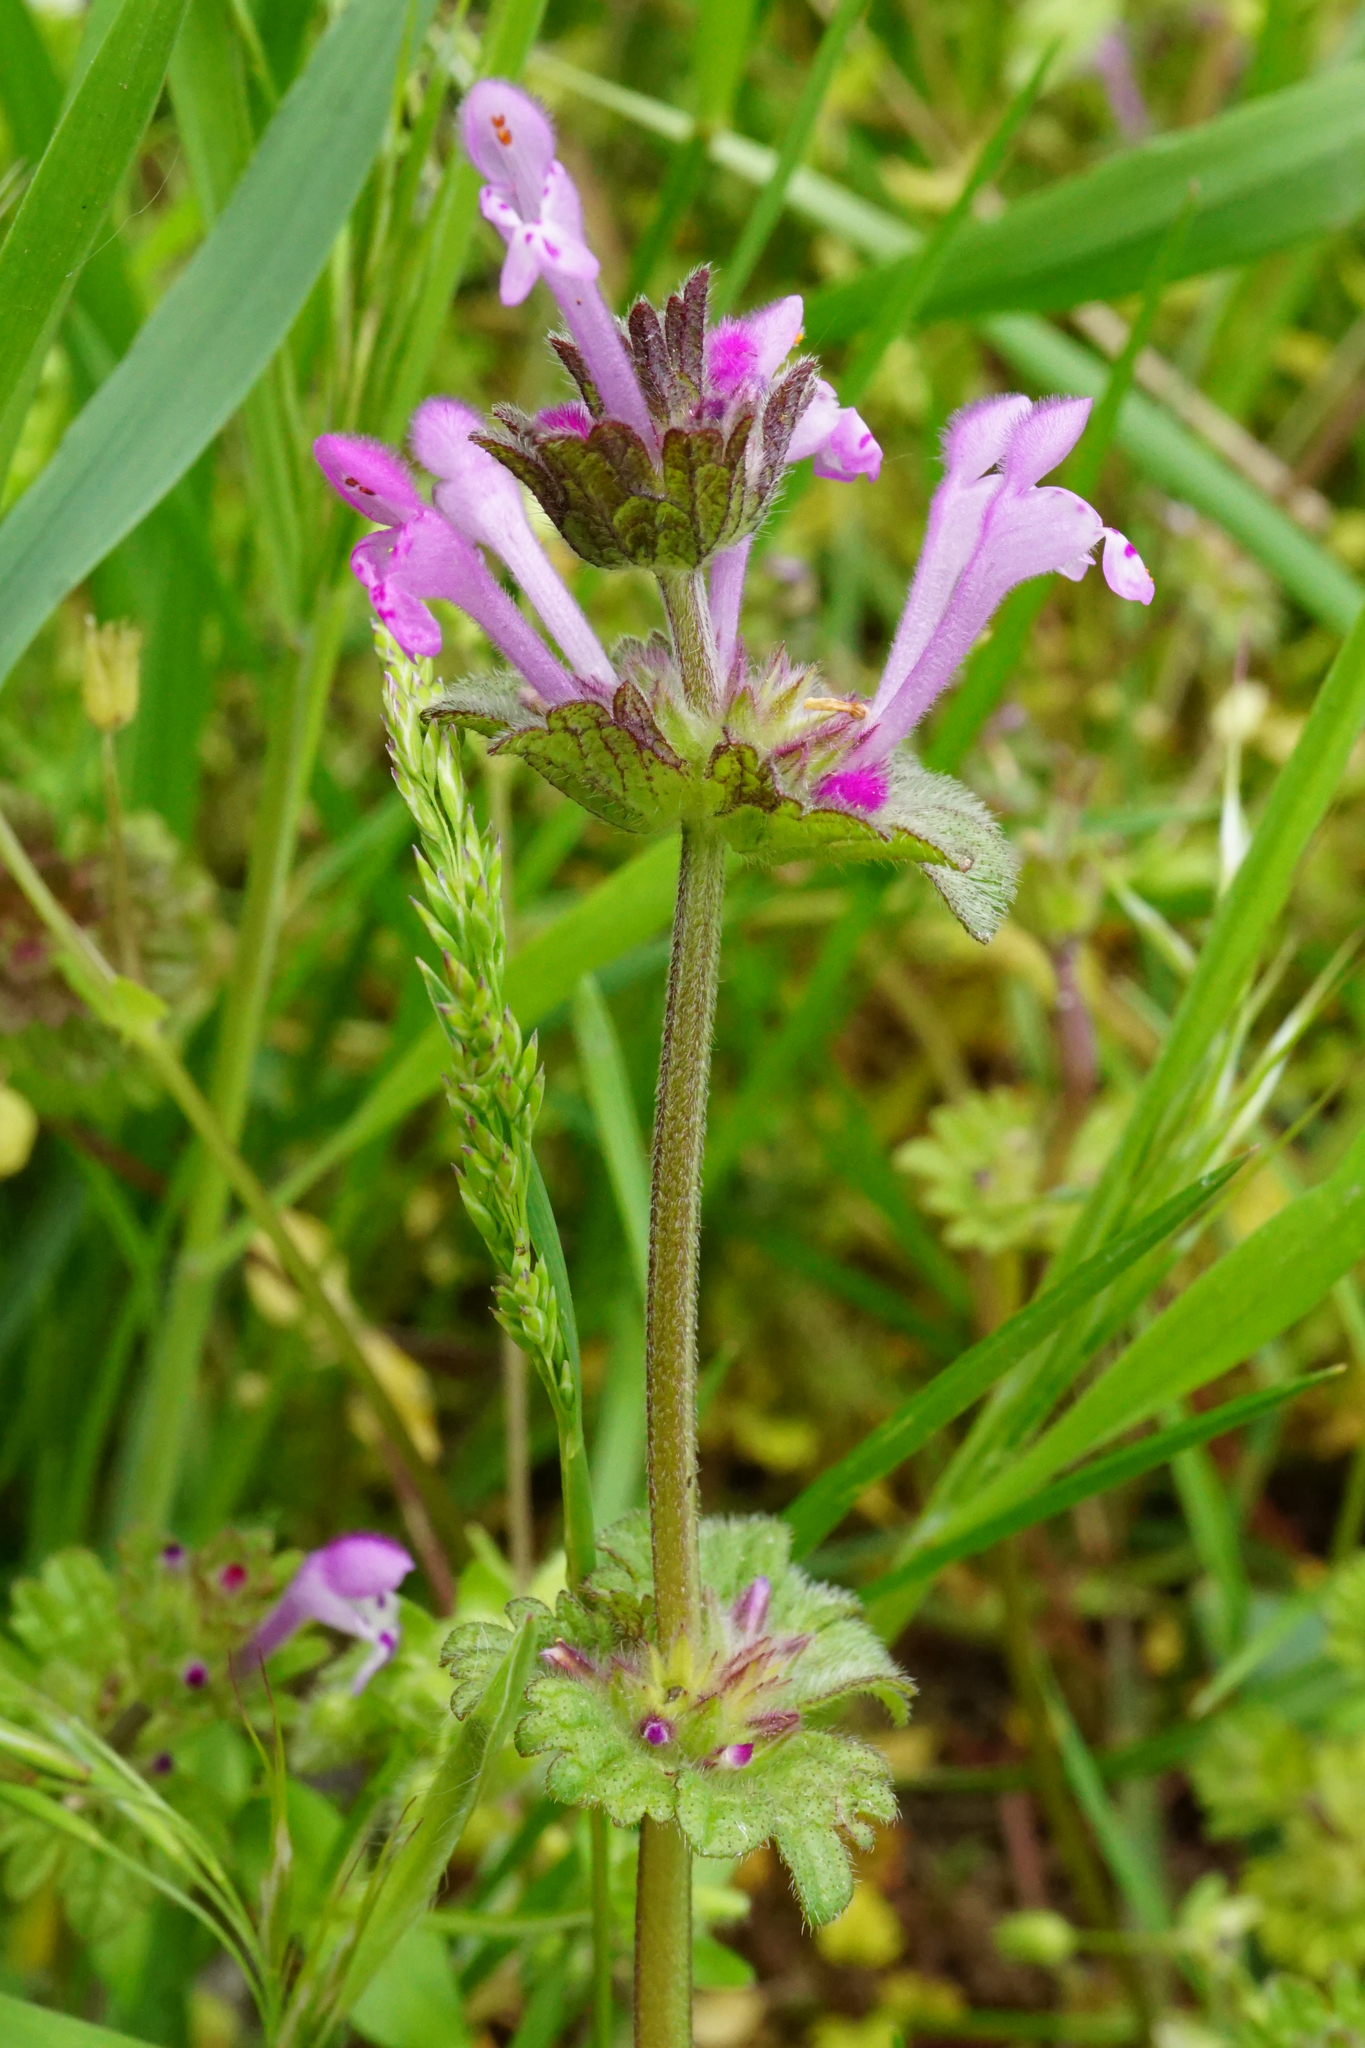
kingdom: Plantae
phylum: Tracheophyta
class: Magnoliopsida
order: Lamiales
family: Lamiaceae
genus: Lamium
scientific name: Lamium amplexicaule
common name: Henbit dead-nettle
